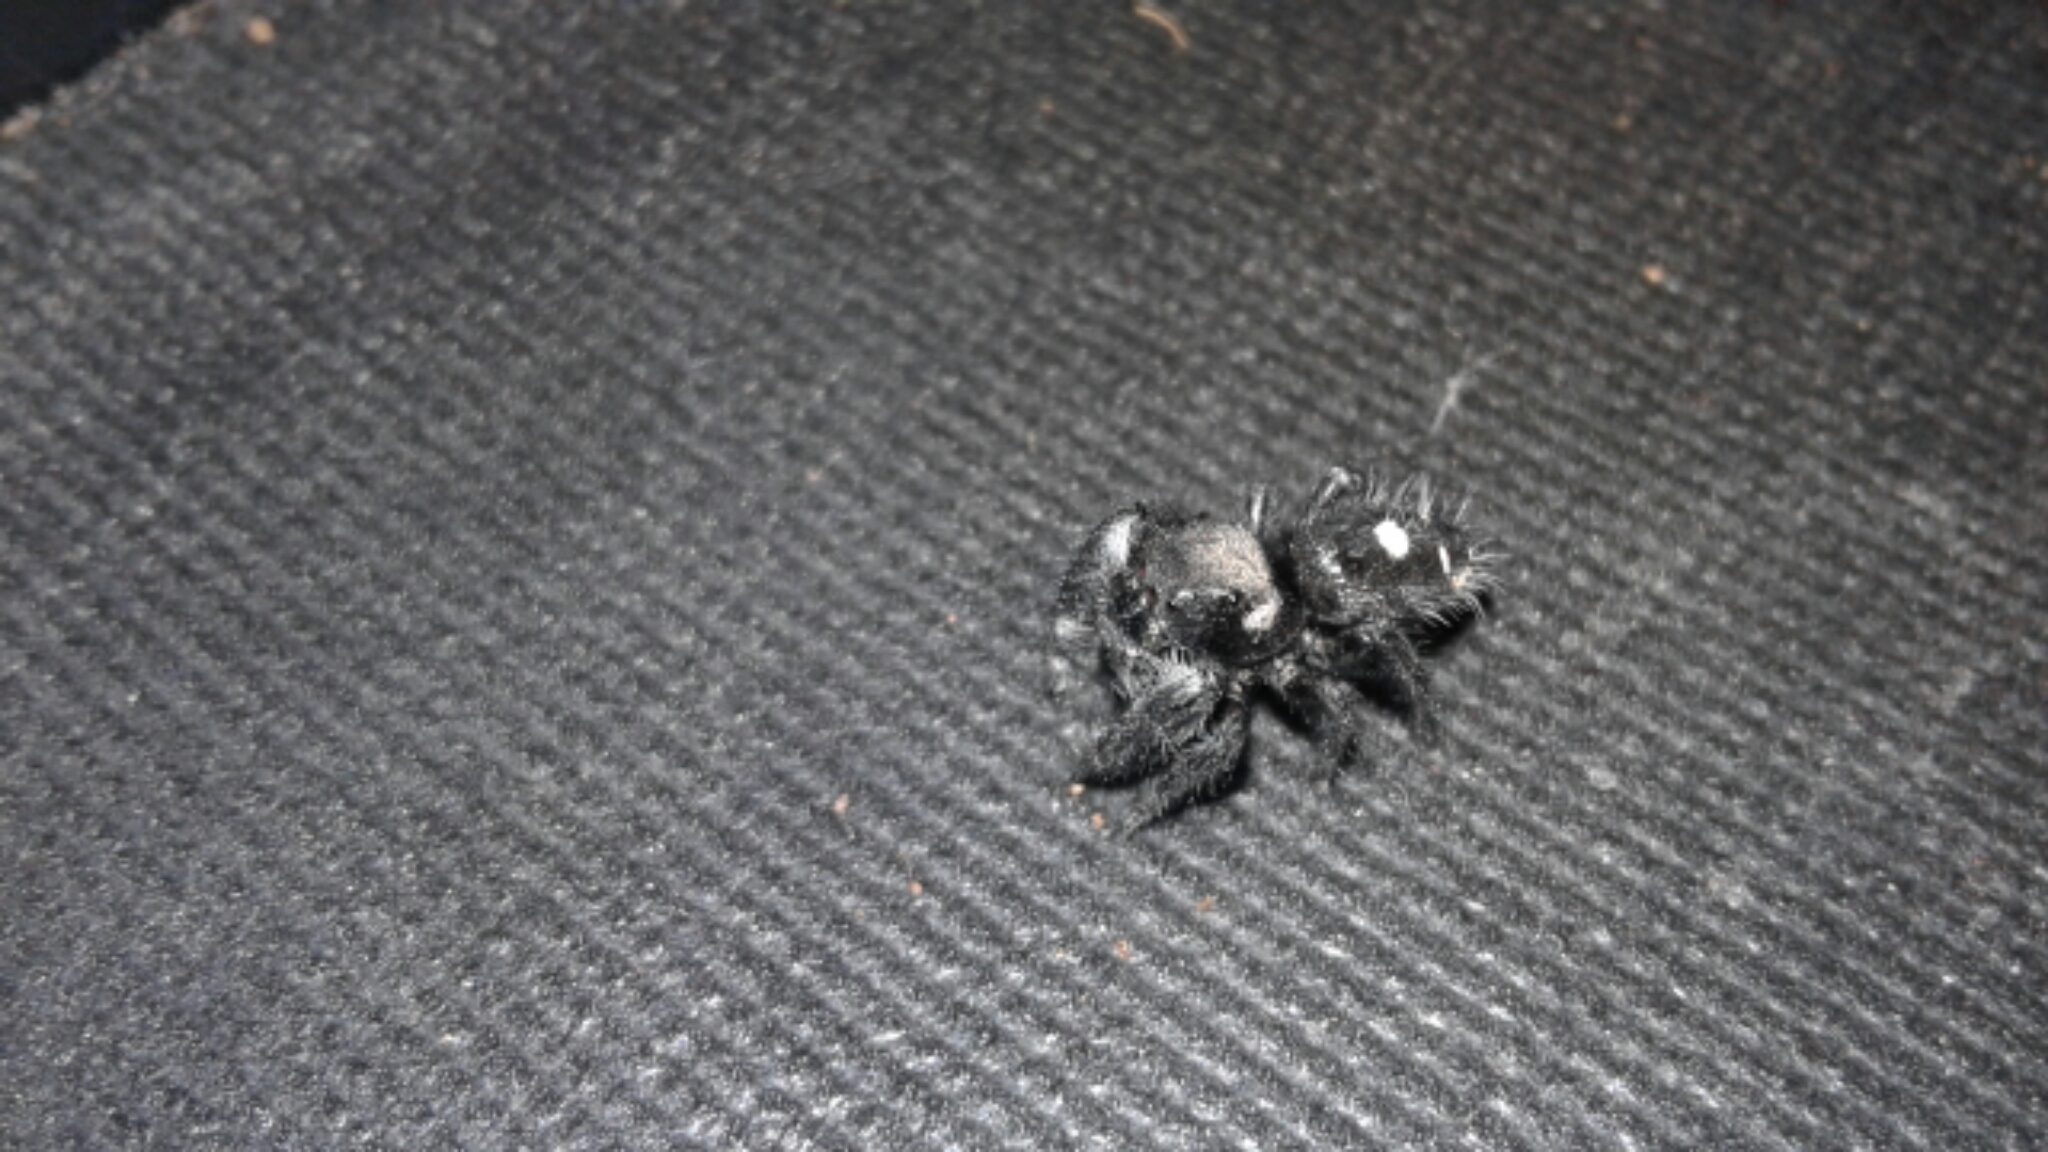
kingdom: Animalia
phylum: Arthropoda
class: Arachnida
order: Araneae
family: Salticidae
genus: Phidippus
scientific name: Phidippus audax
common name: Bold jumper
